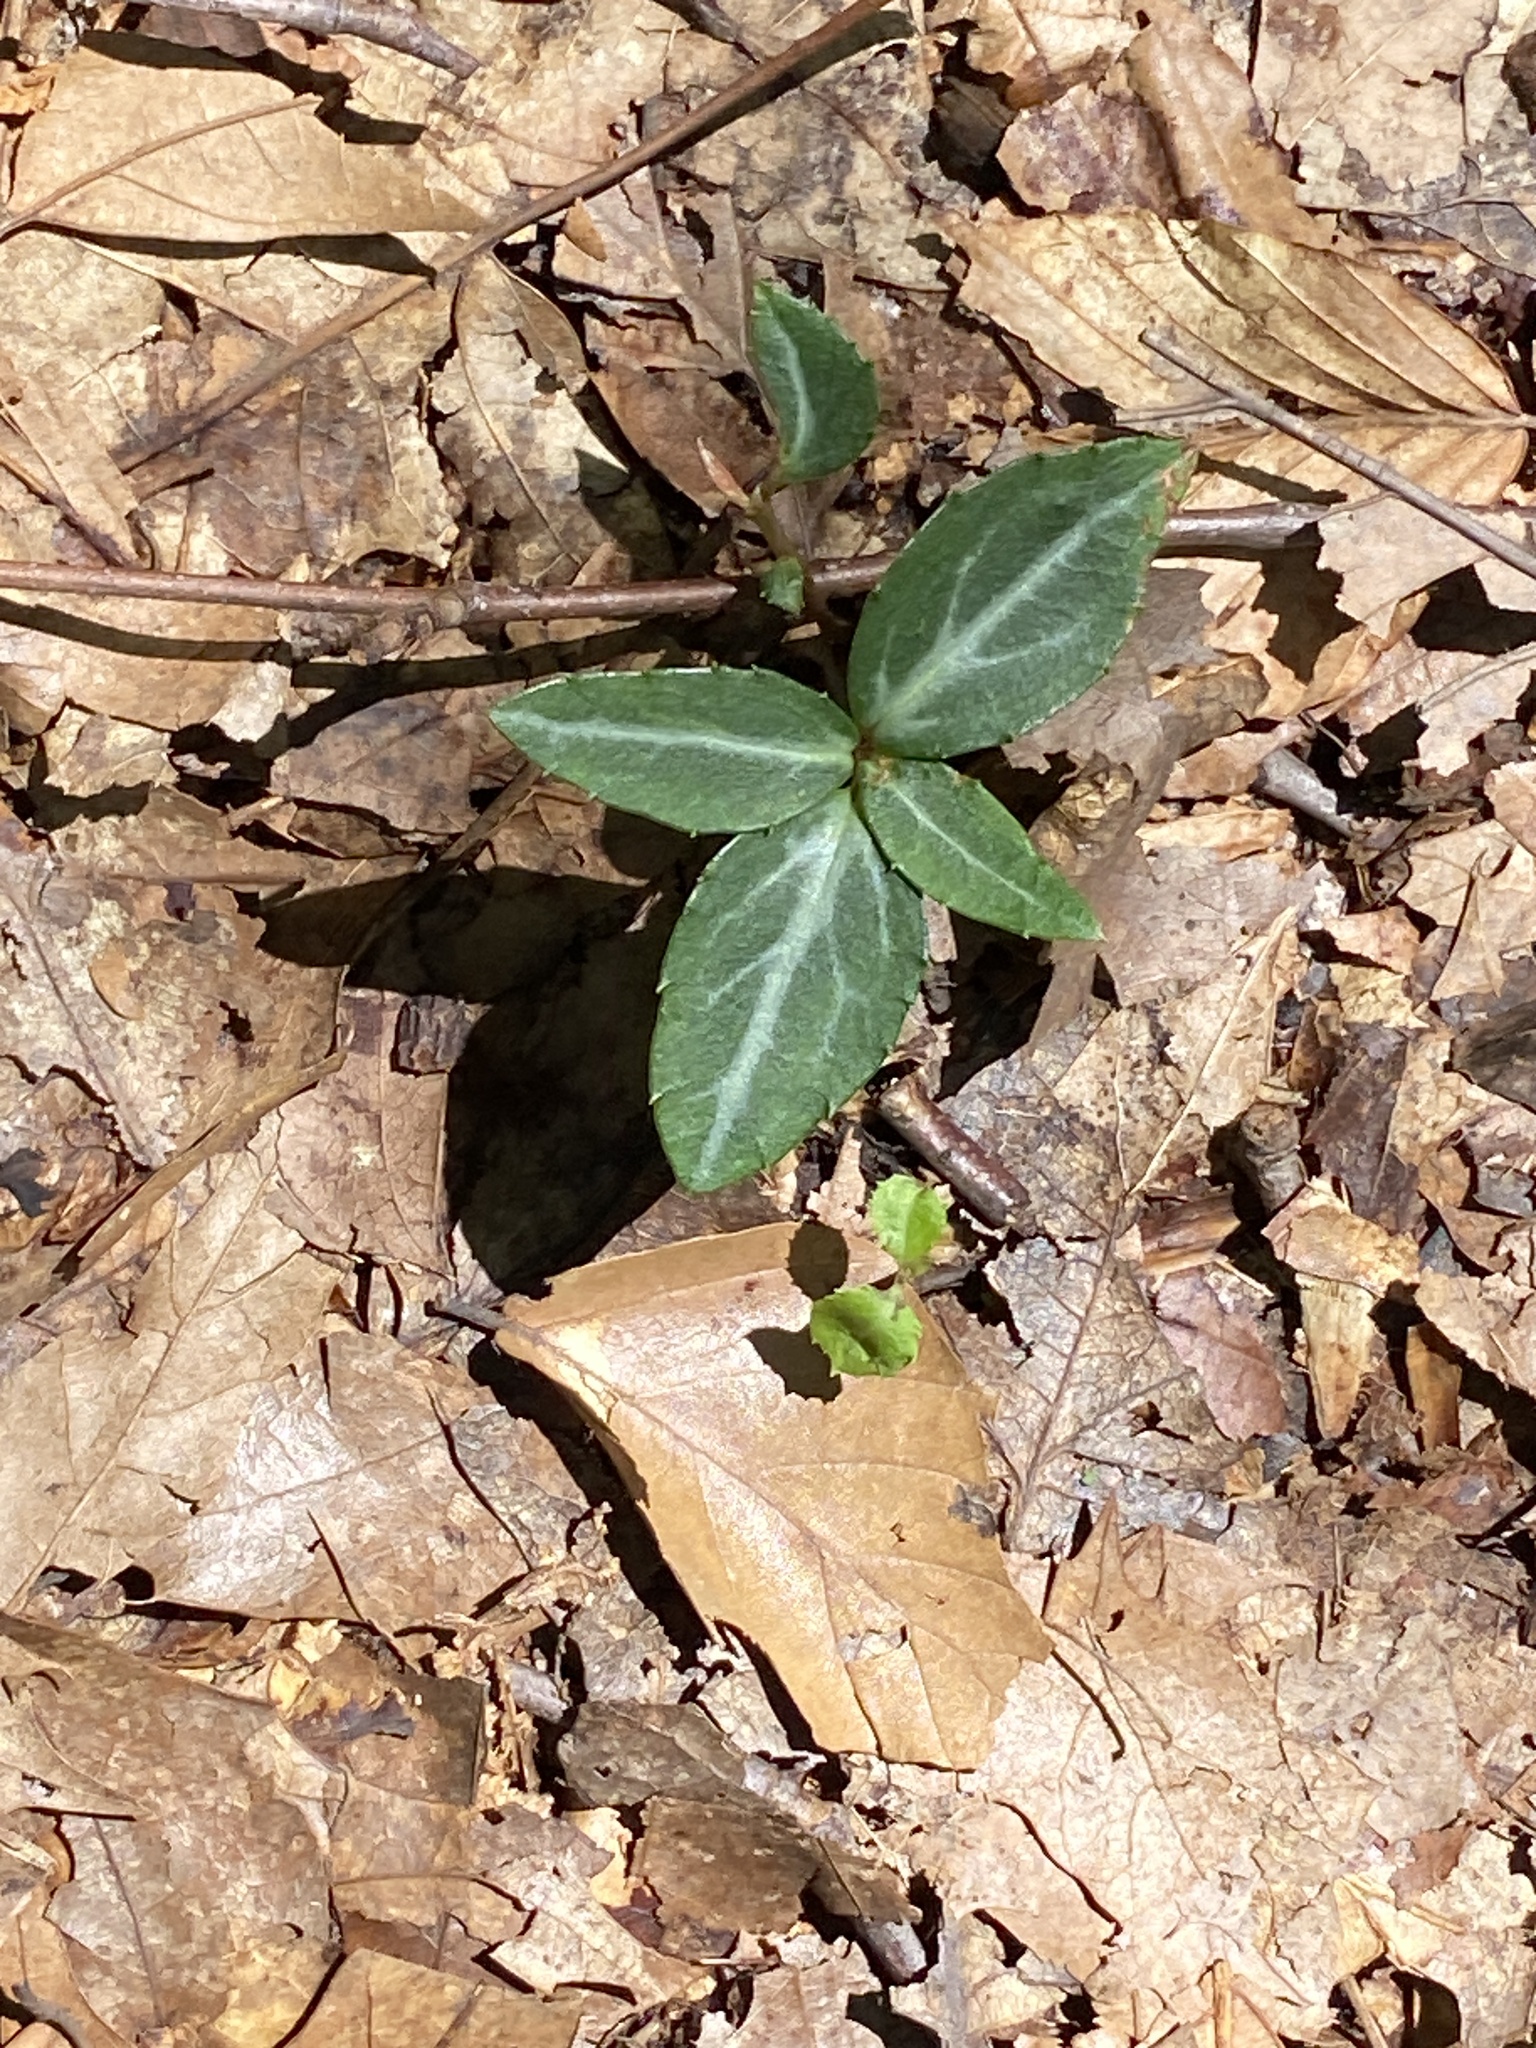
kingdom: Plantae
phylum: Tracheophyta
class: Magnoliopsida
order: Ericales
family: Ericaceae
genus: Chimaphila
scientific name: Chimaphila maculata
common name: Spotted pipsissewa
